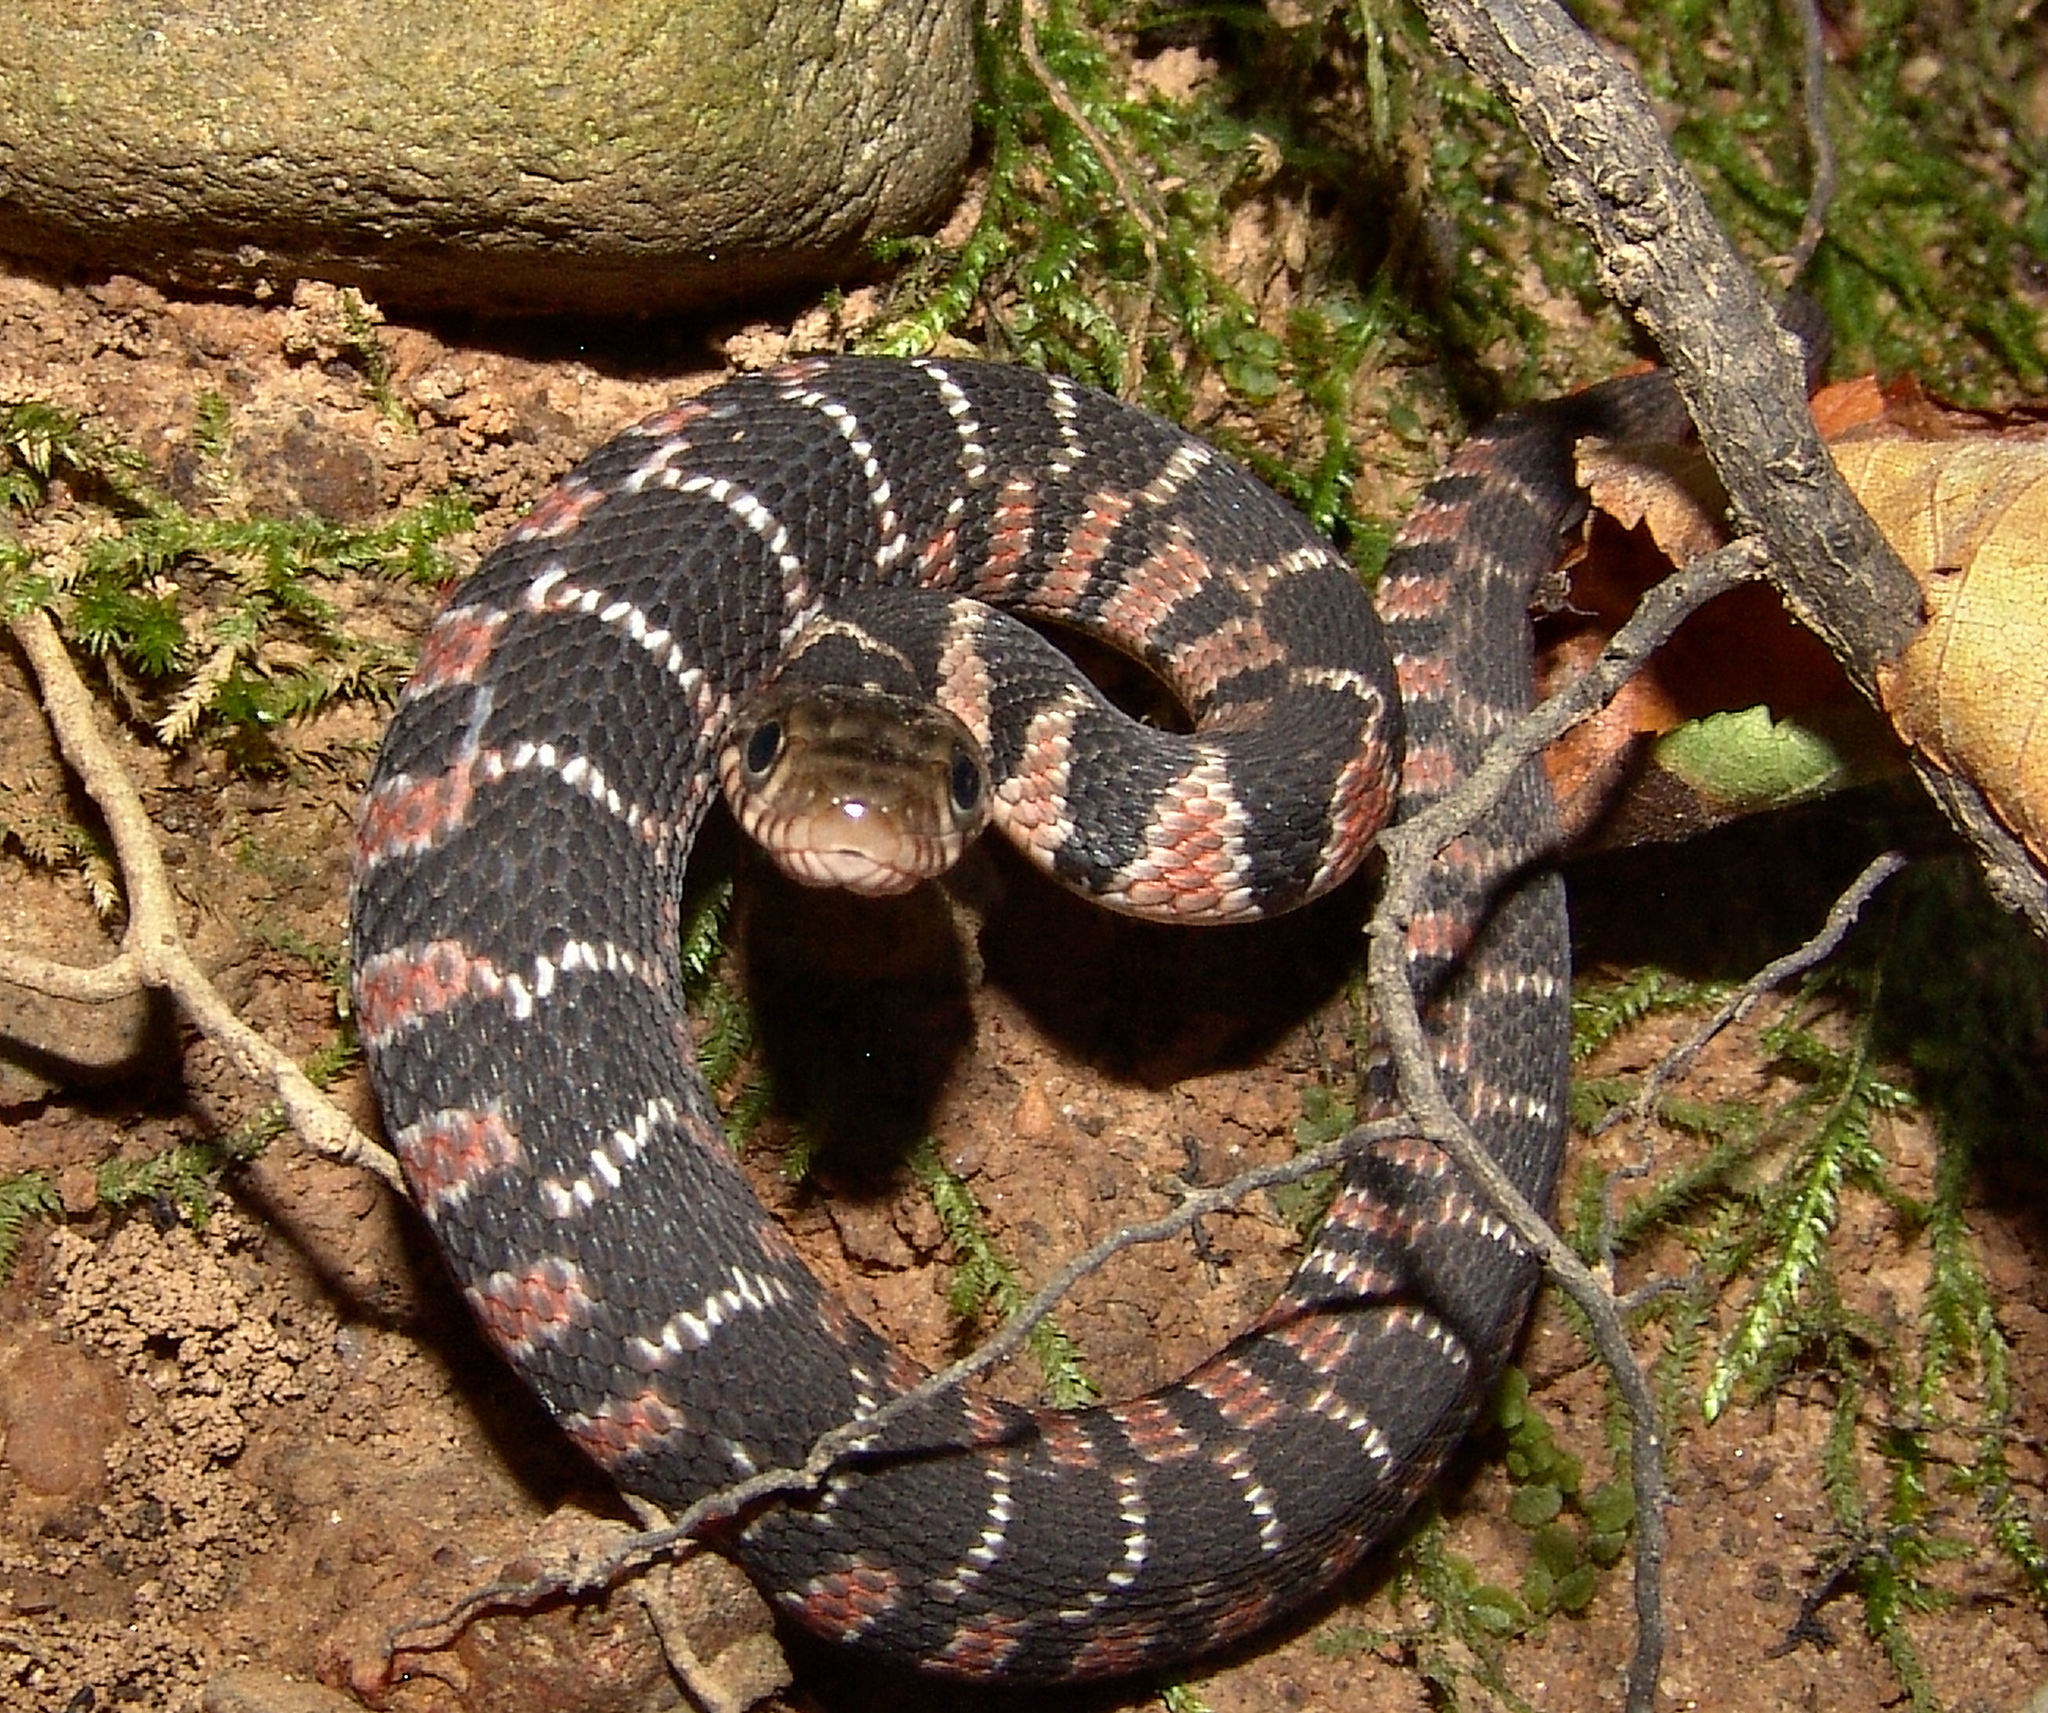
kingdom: Animalia
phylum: Chordata
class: Squamata
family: Colubridae
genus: Nerodia
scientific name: Nerodia erythrogaster
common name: Plainbelly water snake
